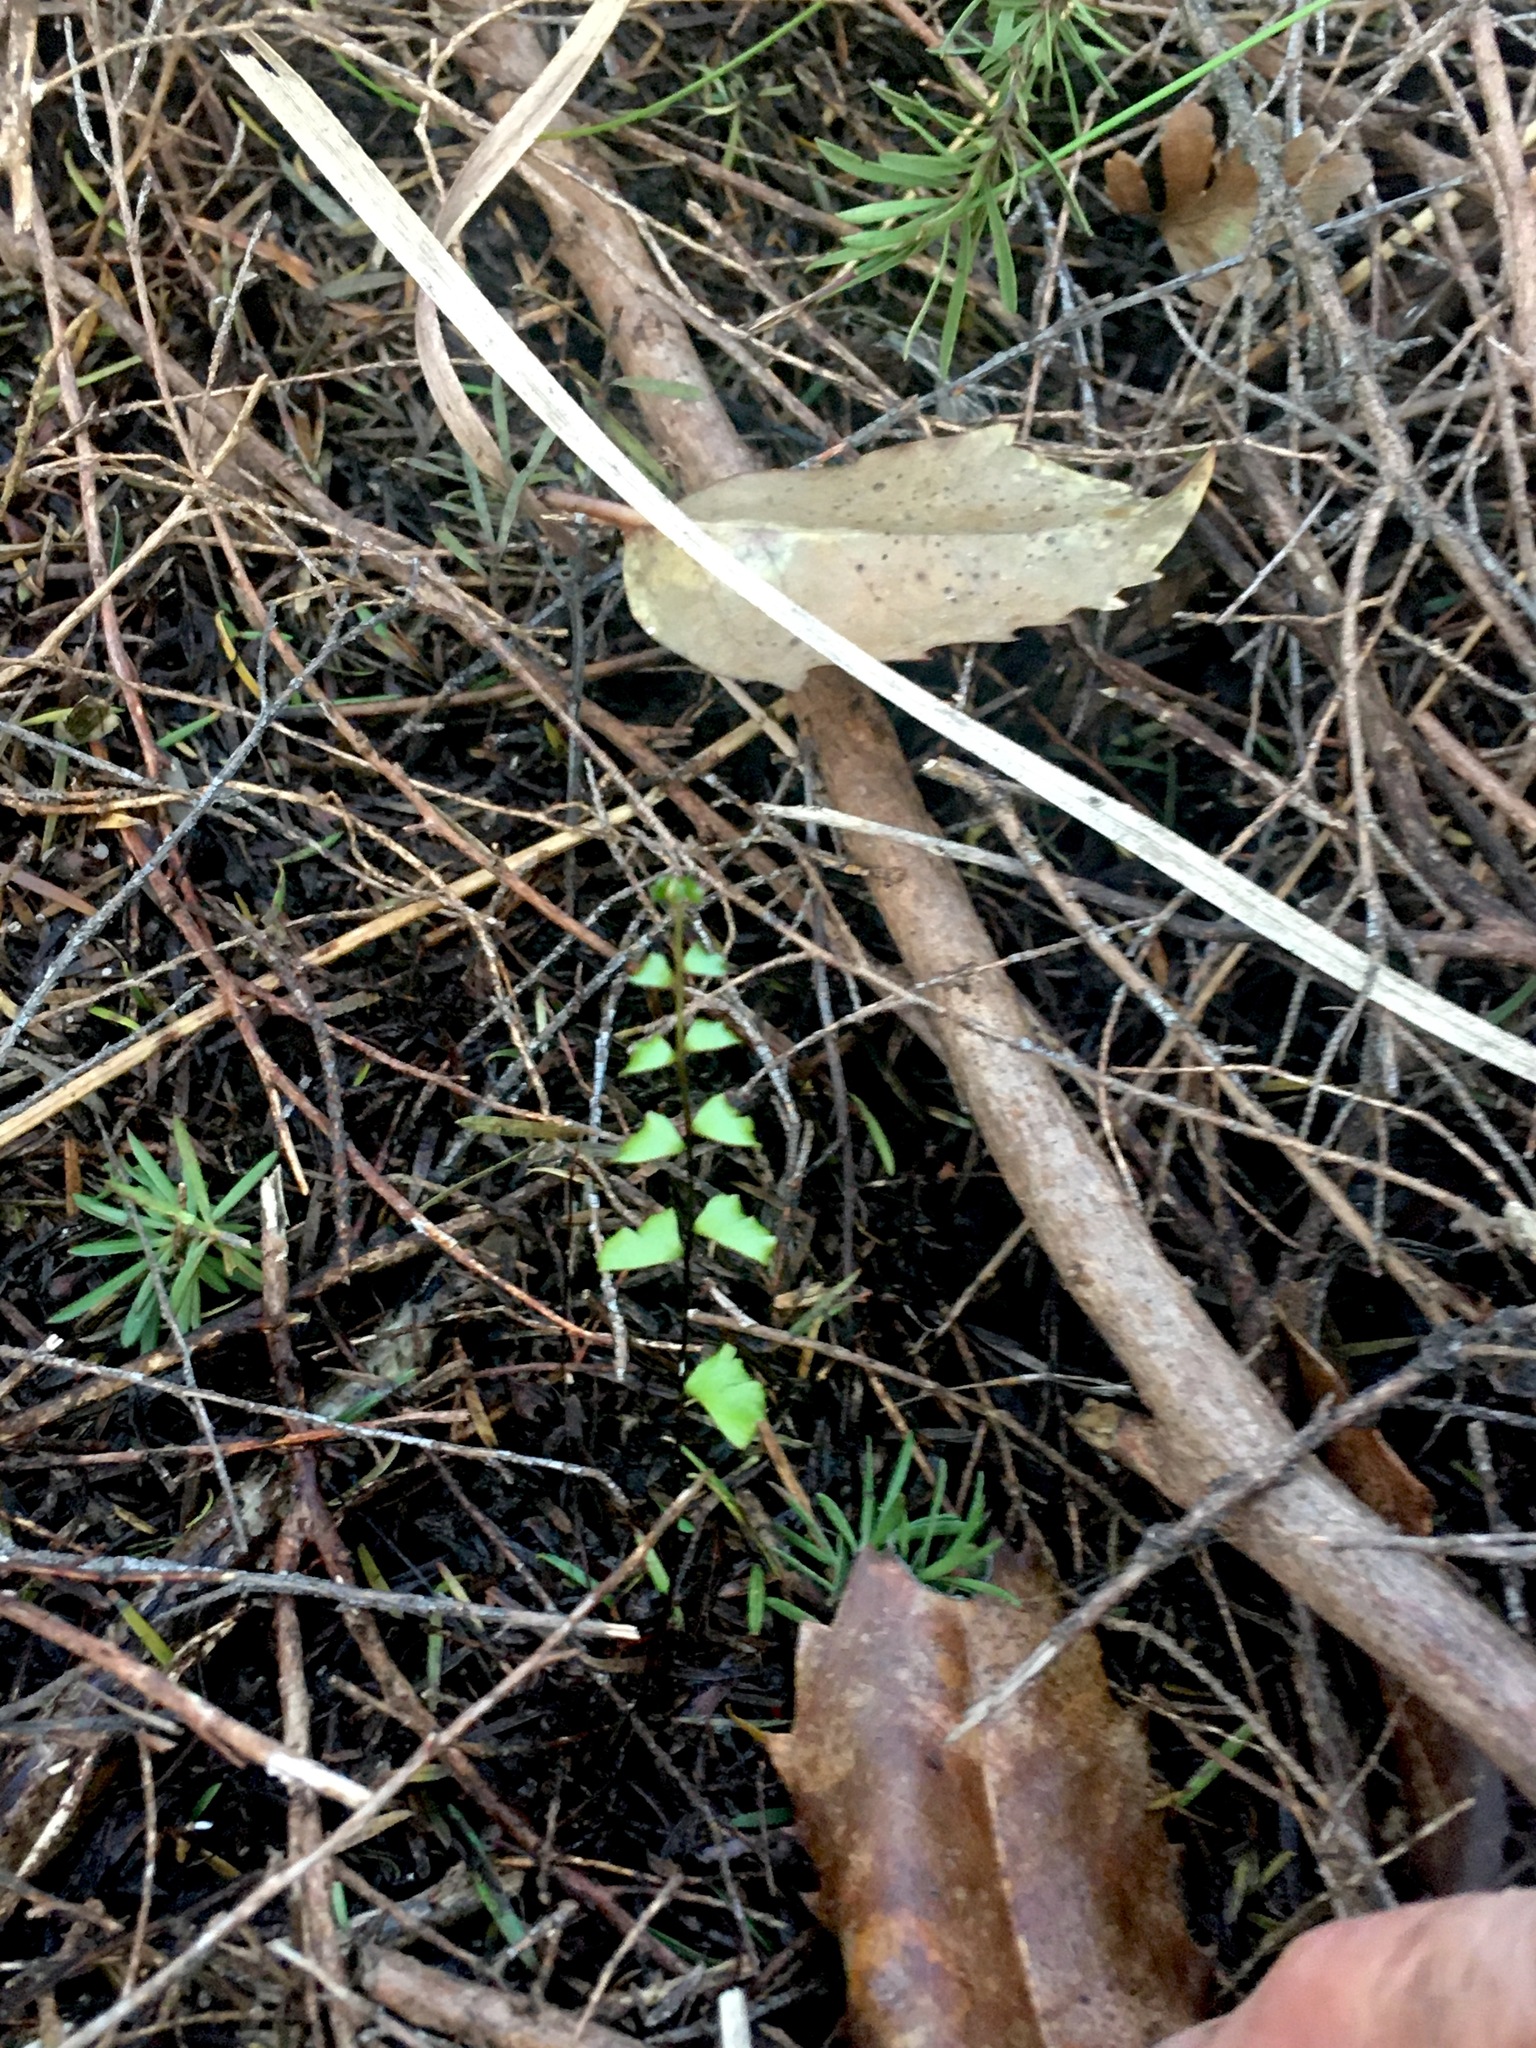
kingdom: Plantae
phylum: Tracheophyta
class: Polypodiopsida
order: Polypodiales
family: Lindsaeaceae
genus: Lindsaea
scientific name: Lindsaea linearis
